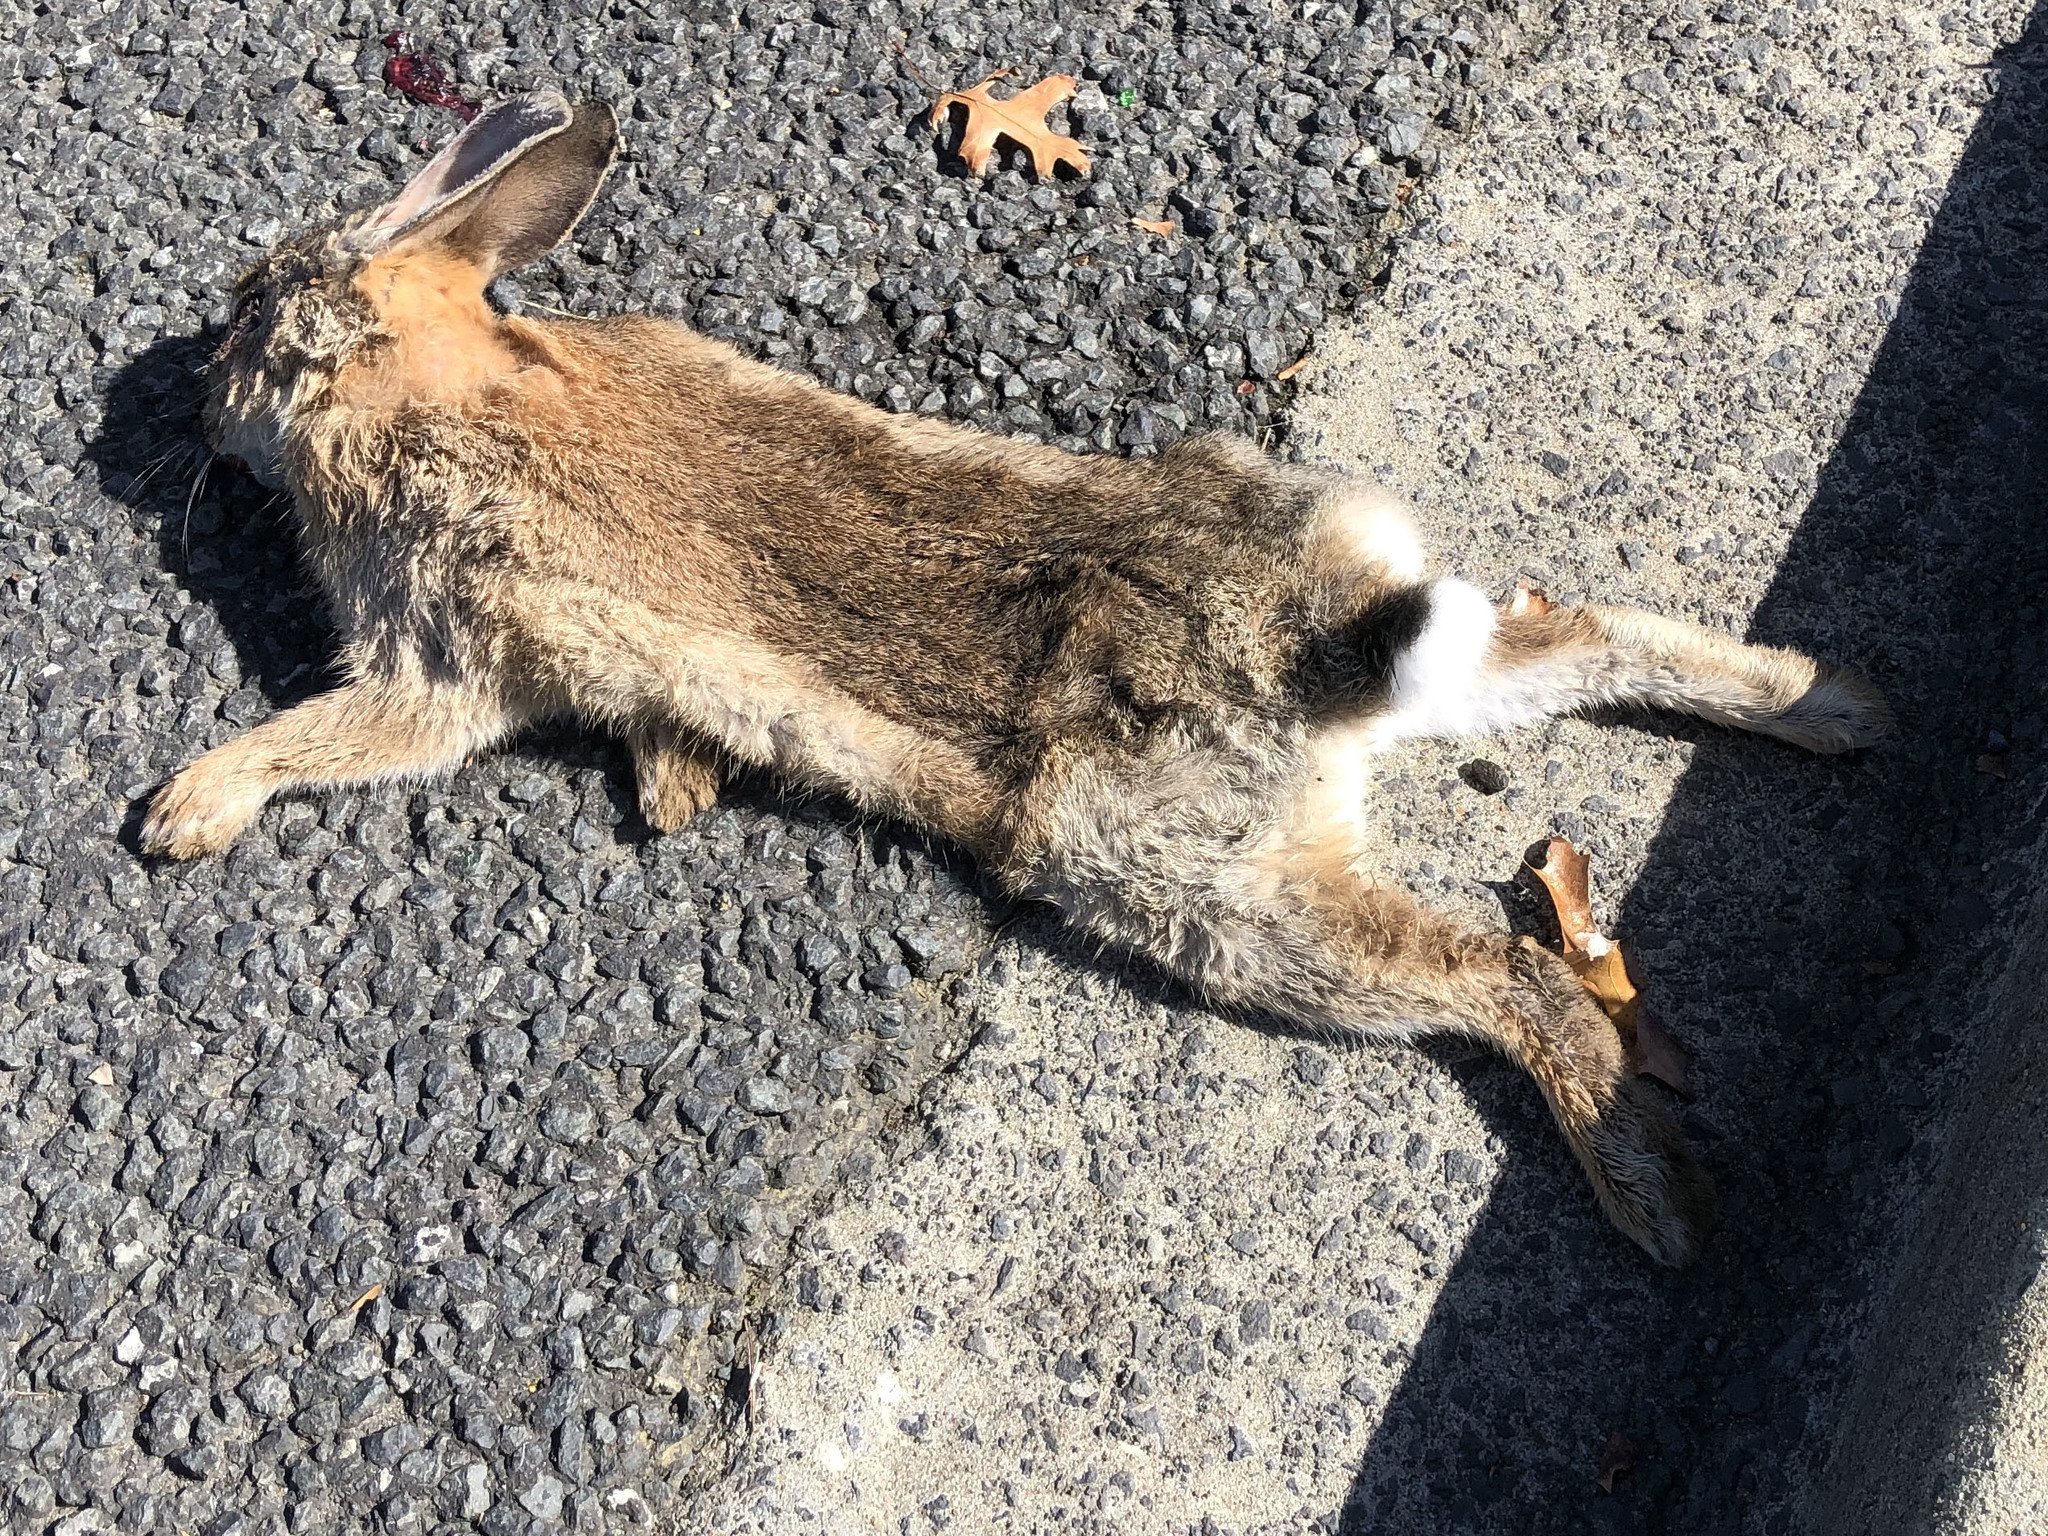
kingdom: Animalia
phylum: Chordata
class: Mammalia
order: Lagomorpha
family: Leporidae
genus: Oryctolagus
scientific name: Oryctolagus cuniculus
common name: European rabbit
